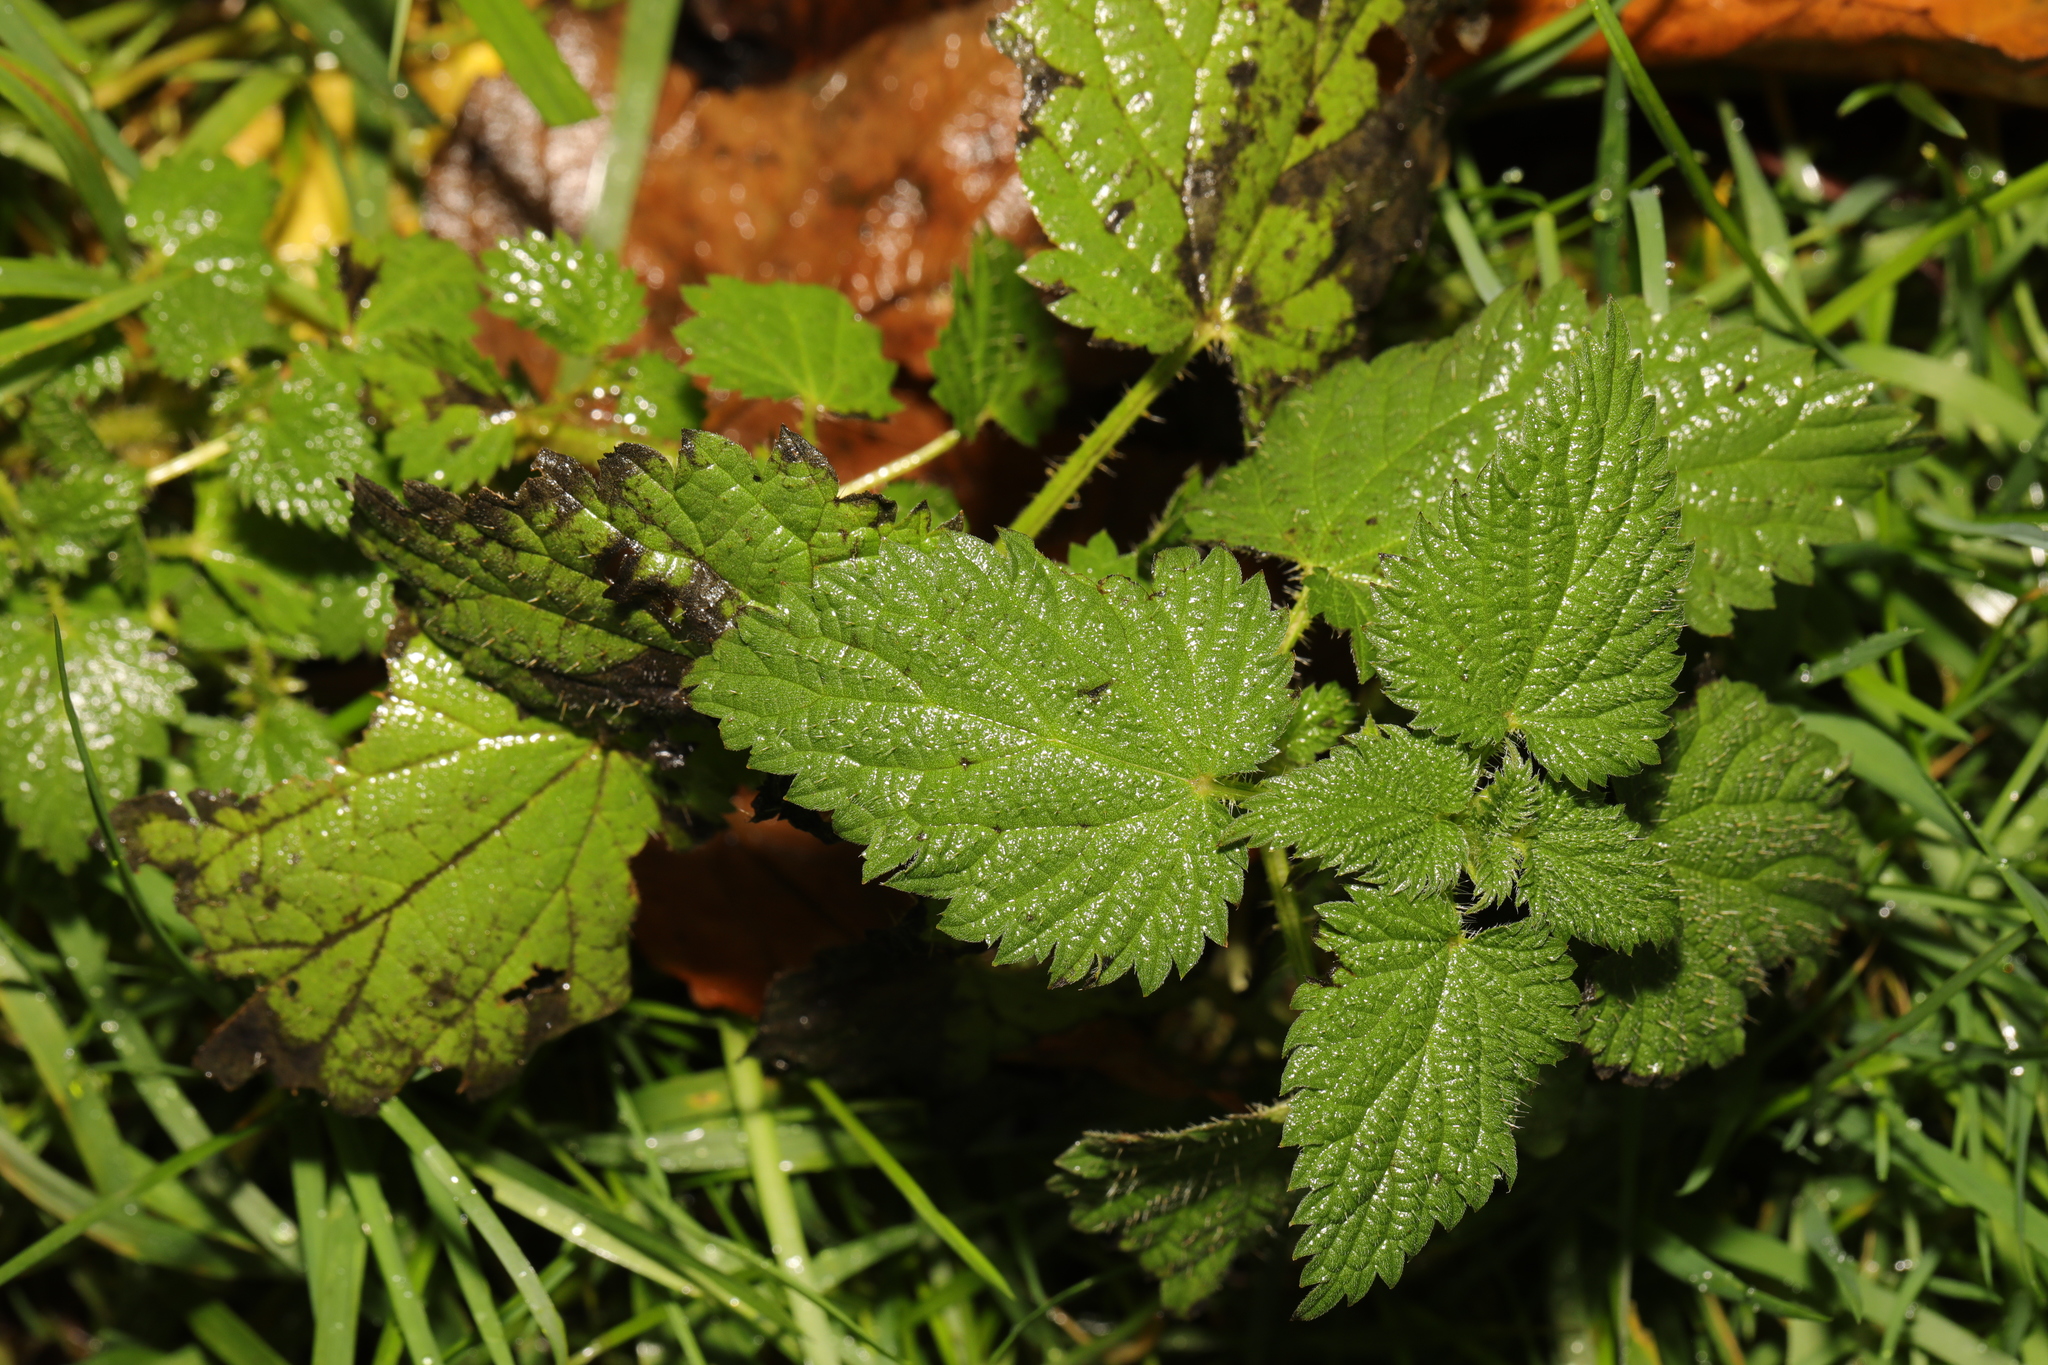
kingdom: Plantae
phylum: Tracheophyta
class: Magnoliopsida
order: Rosales
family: Urticaceae
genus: Urtica
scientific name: Urtica dioica
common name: Common nettle
